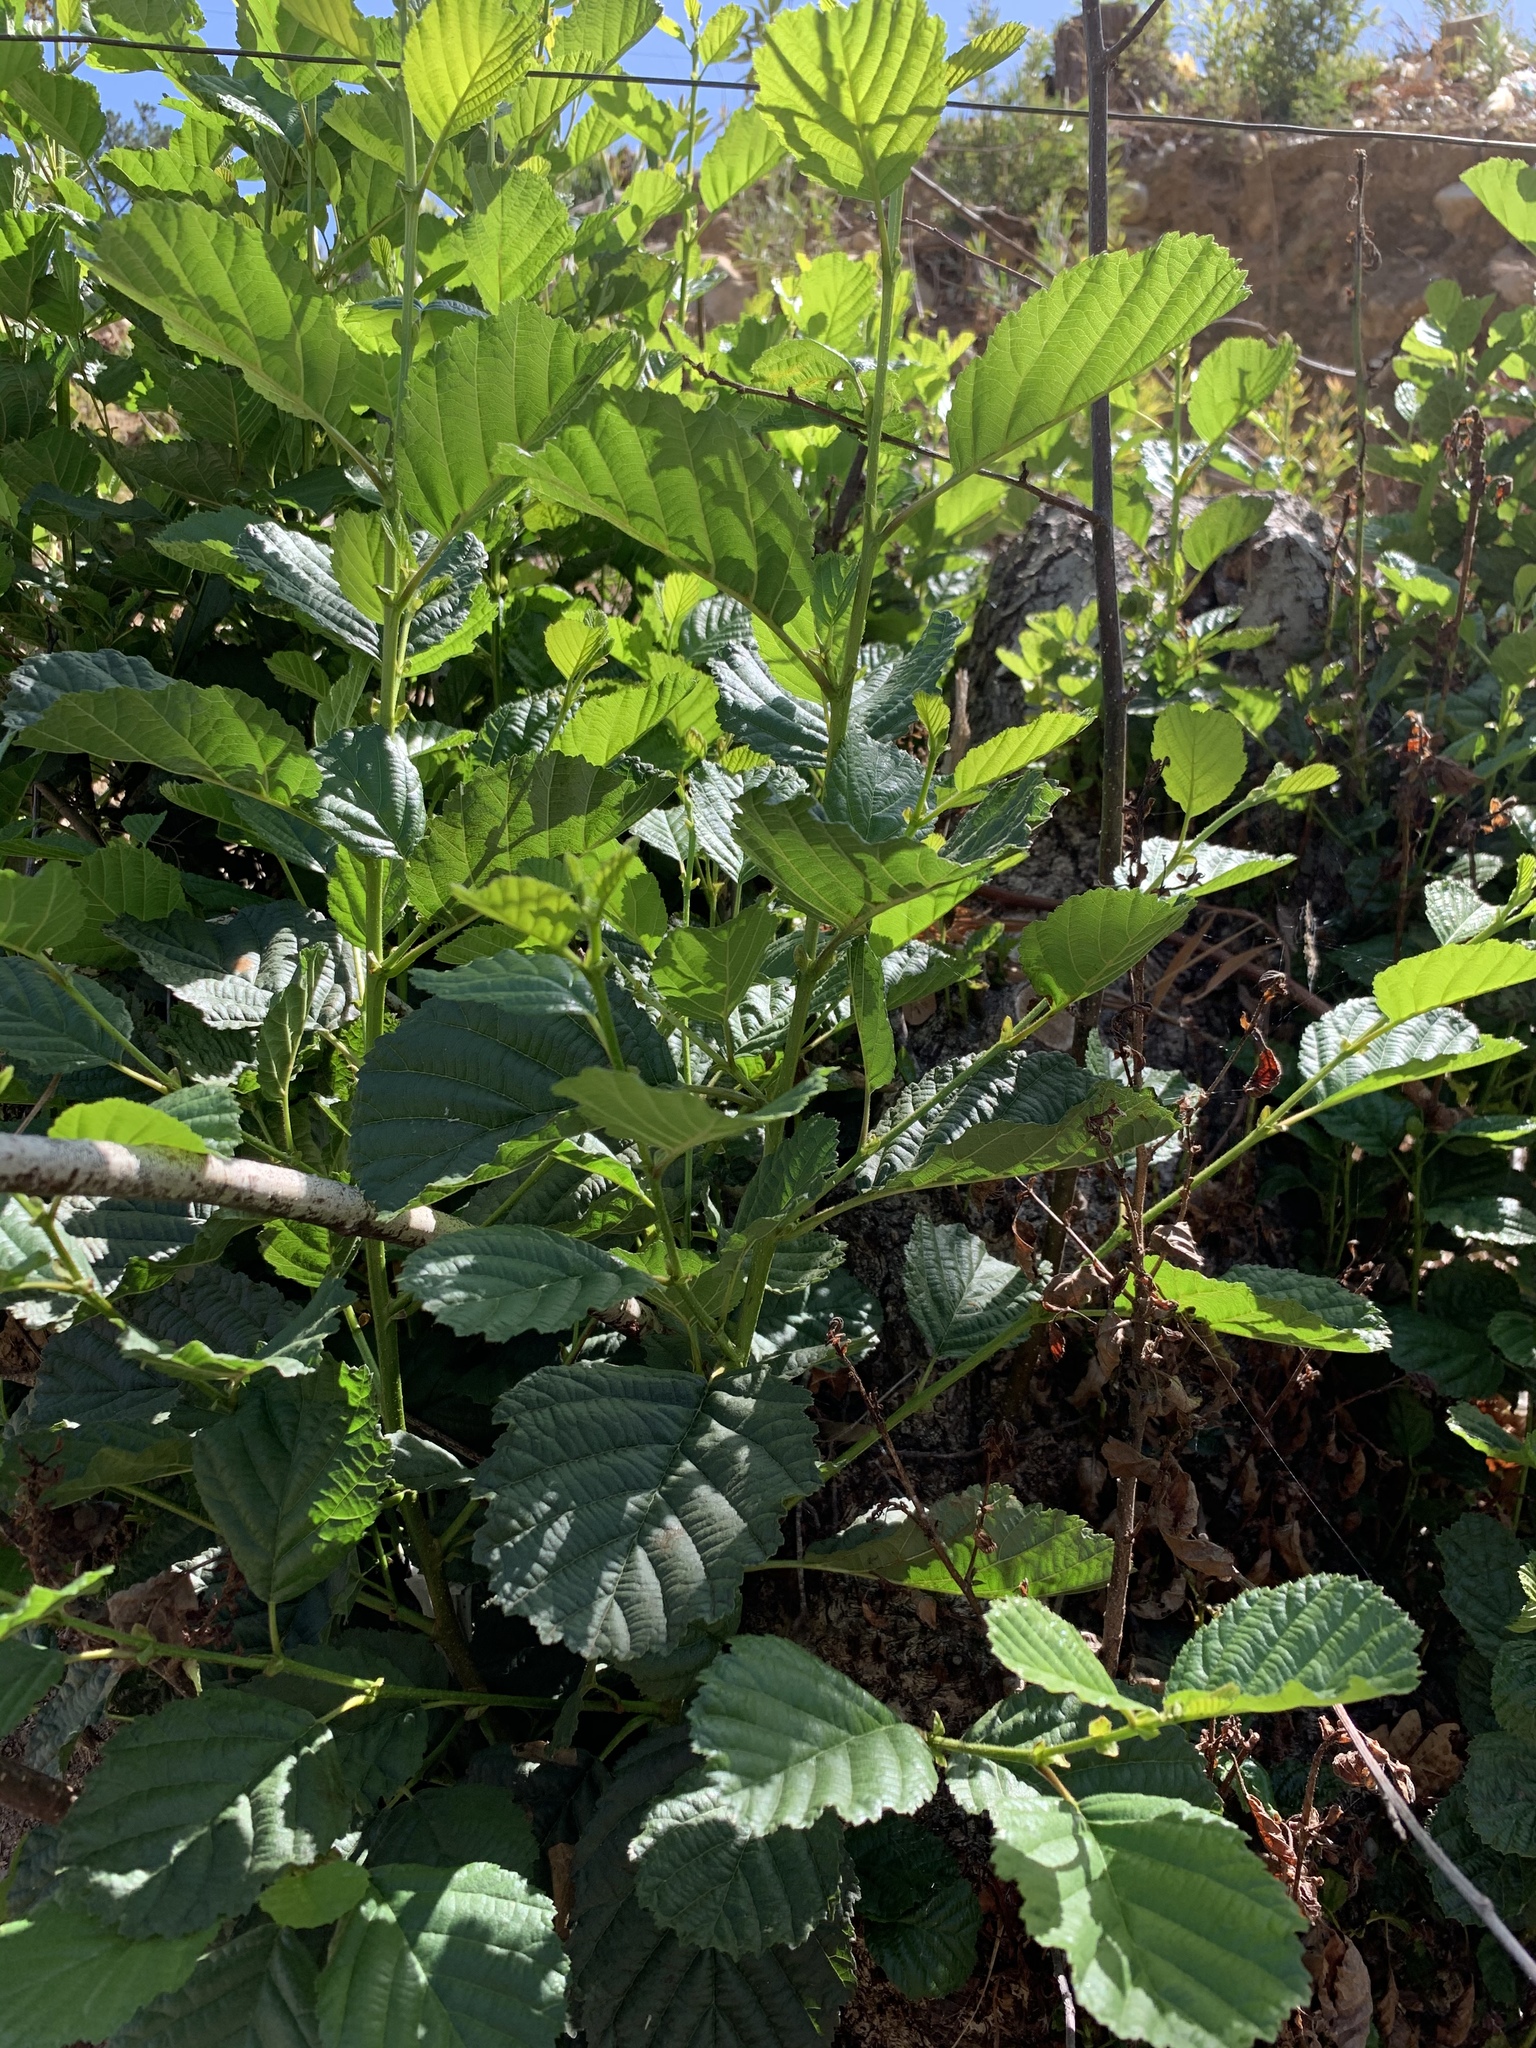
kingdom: Plantae
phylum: Tracheophyta
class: Magnoliopsida
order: Fagales
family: Betulaceae
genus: Alnus
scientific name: Alnus glutinosa
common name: Black alder
